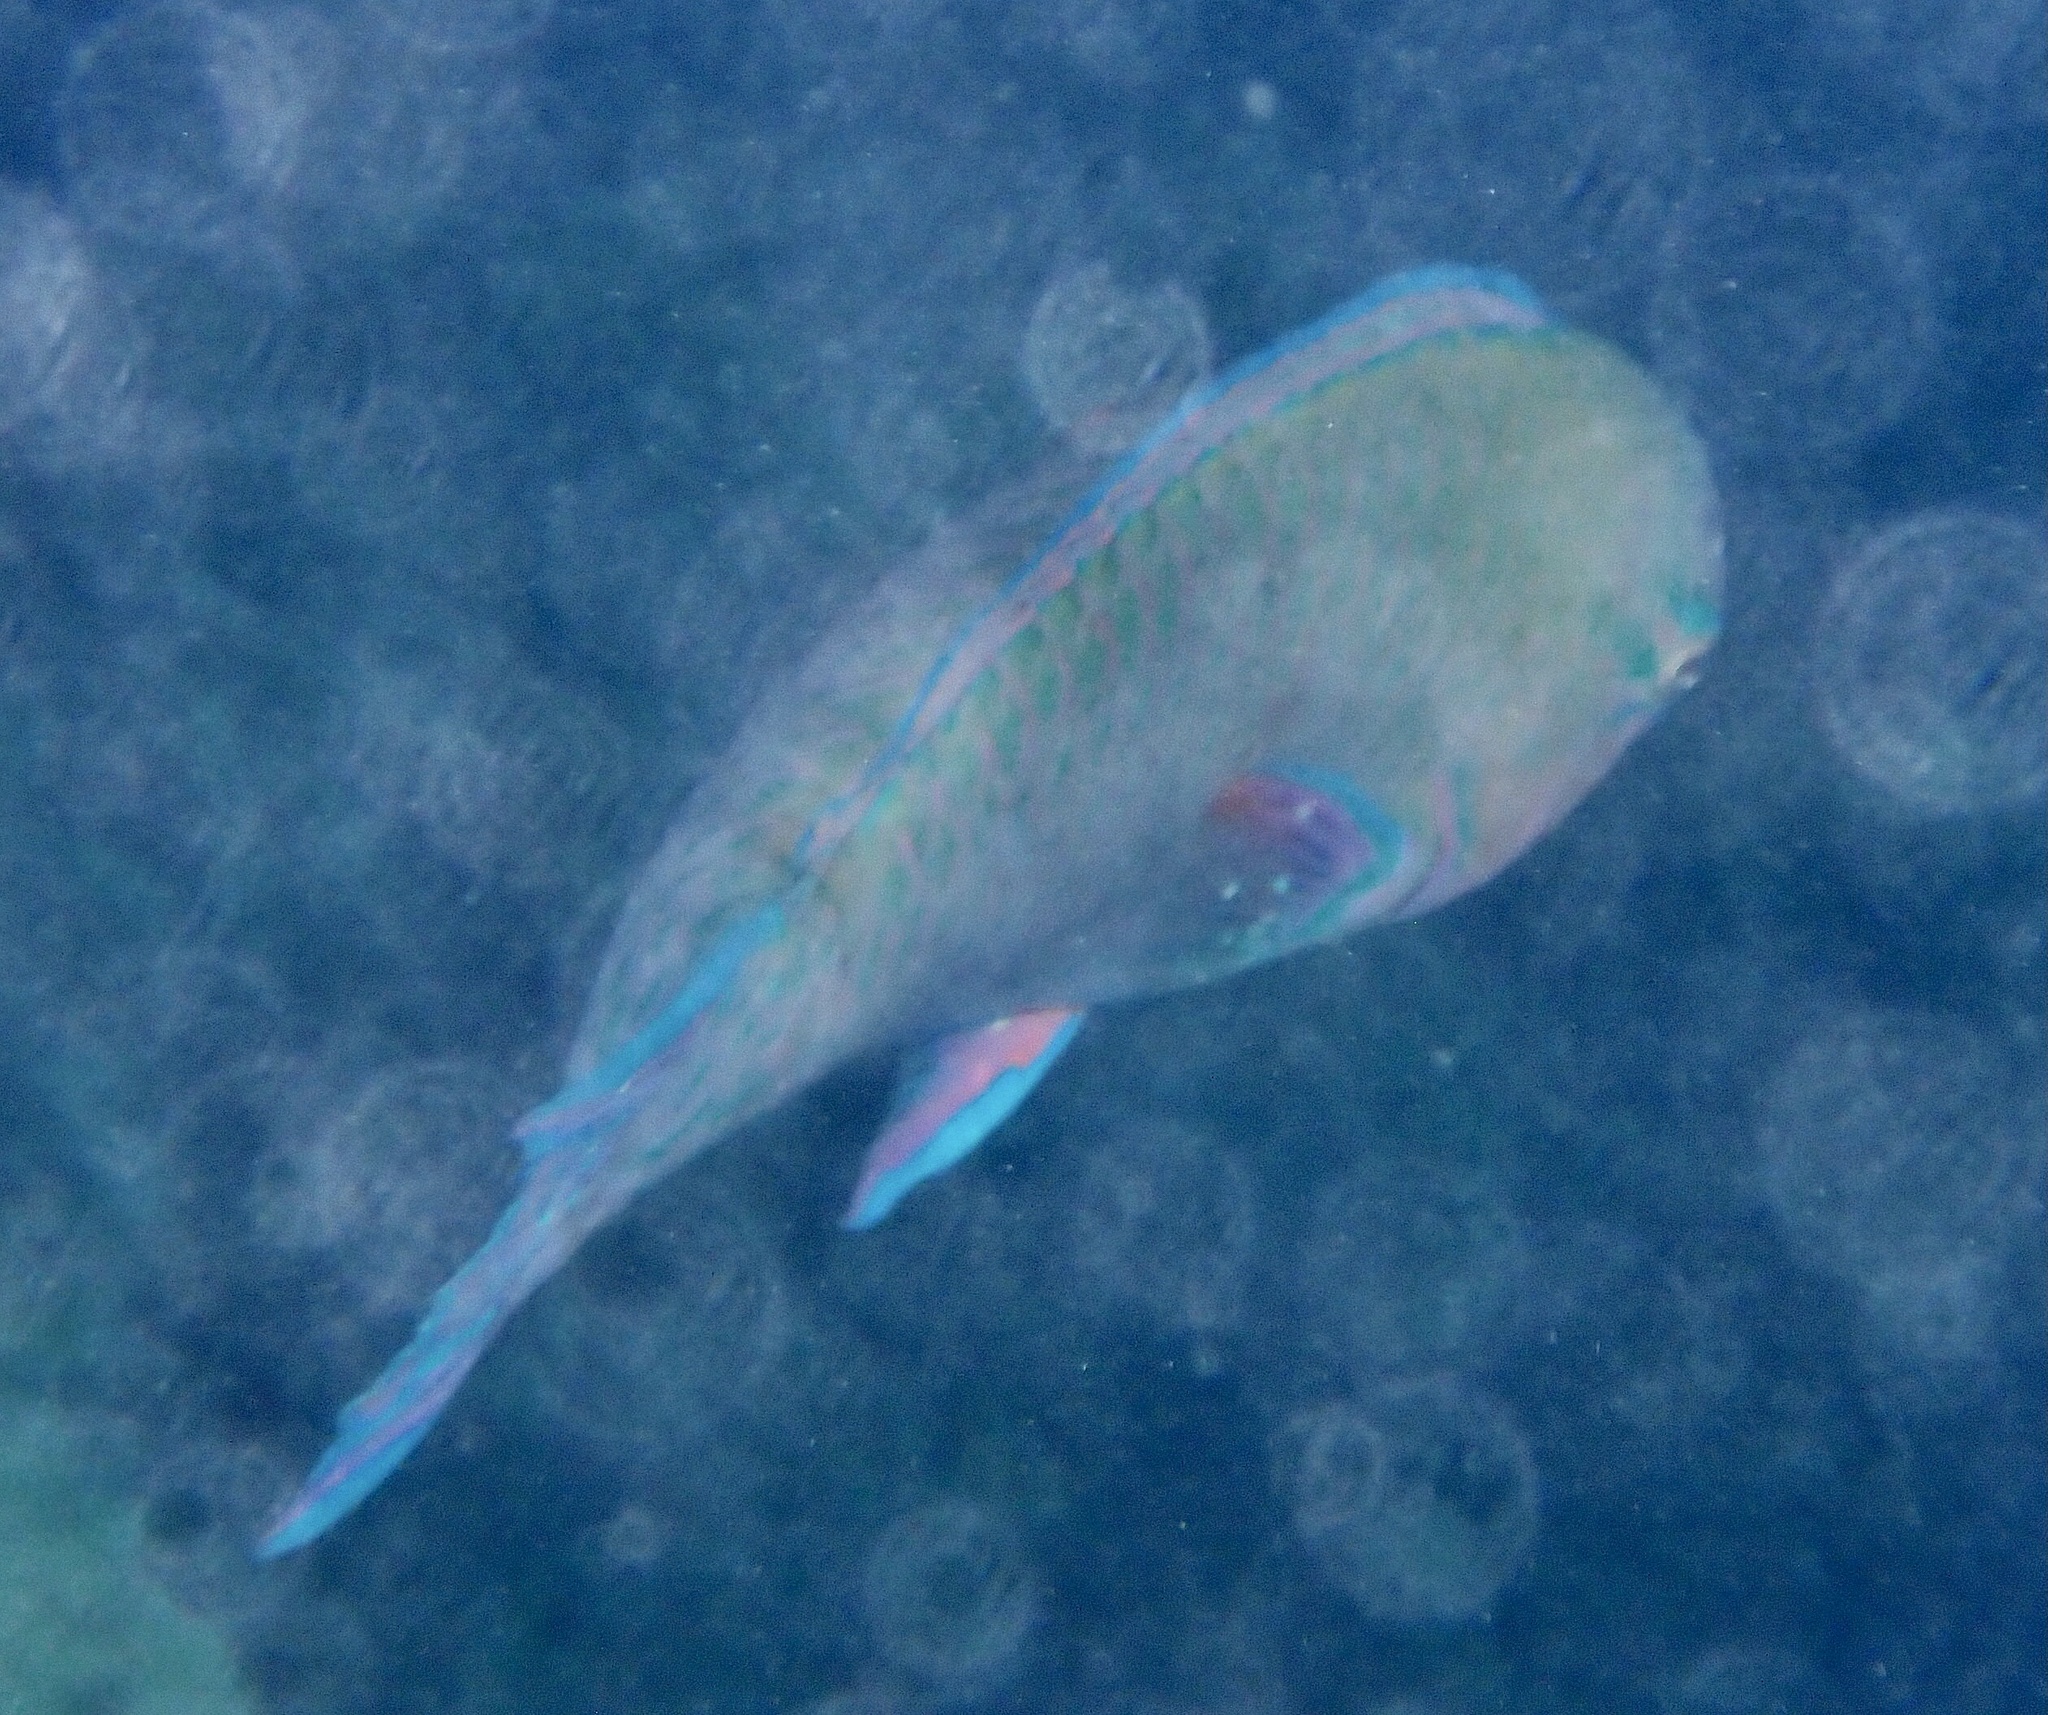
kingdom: Animalia
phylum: Chordata
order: Tetraodontiformes
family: Diodontidae
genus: Diodon
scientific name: Diodon hystrix
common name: Giant porcupinefish
